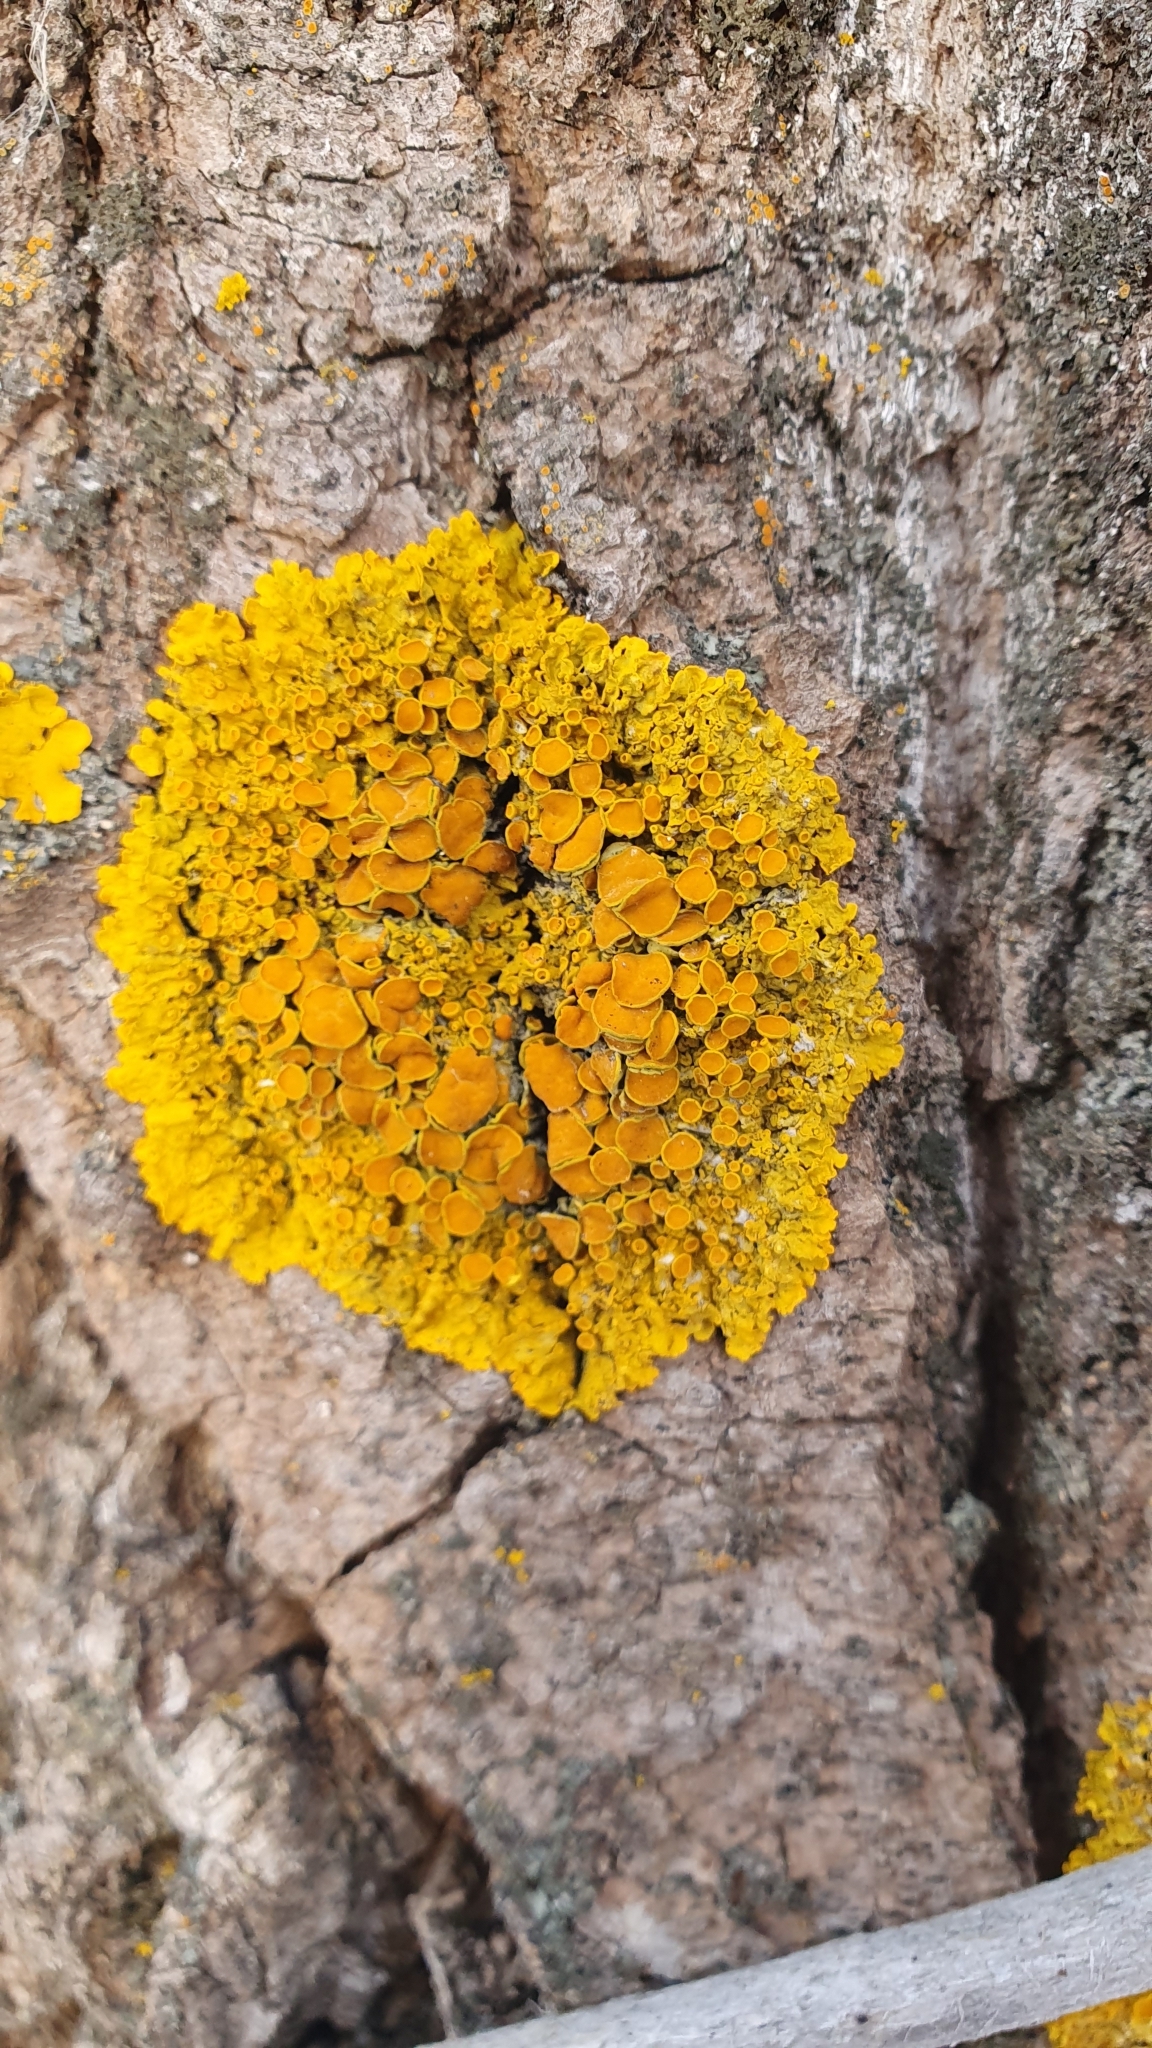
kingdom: Fungi
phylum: Ascomycota
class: Lecanoromycetes
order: Teloschistales
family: Teloschistaceae
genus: Xanthoria
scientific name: Xanthoria parietina
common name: Common orange lichen
